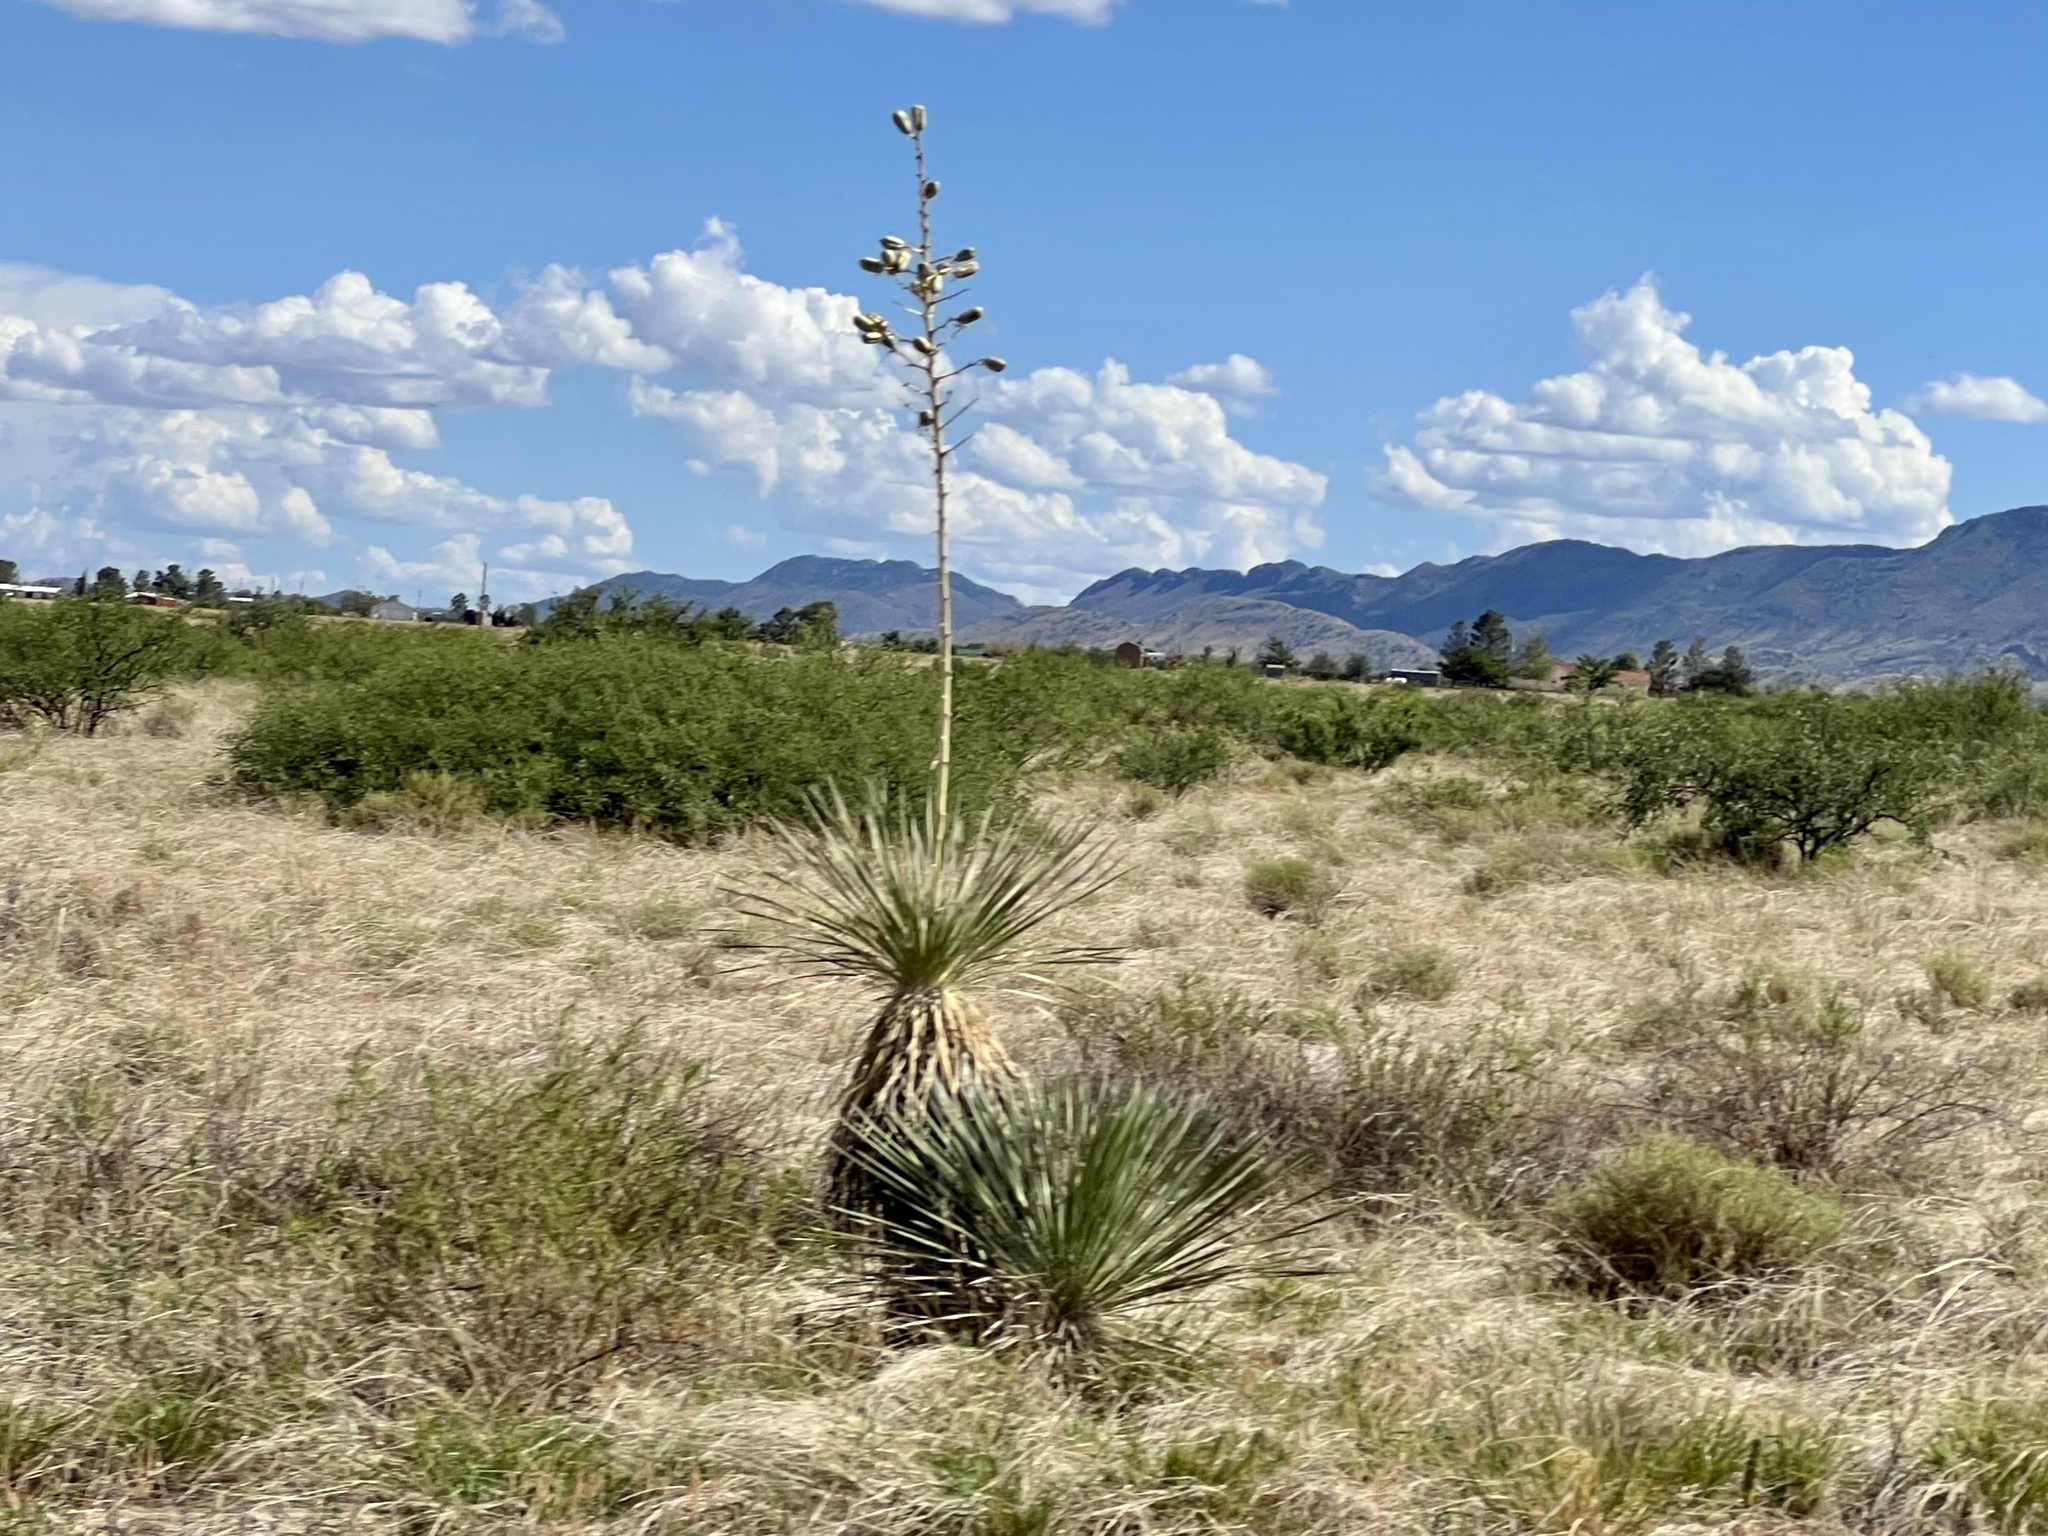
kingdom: Plantae
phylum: Tracheophyta
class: Liliopsida
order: Asparagales
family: Asparagaceae
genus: Yucca
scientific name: Yucca elata
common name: Palmella
